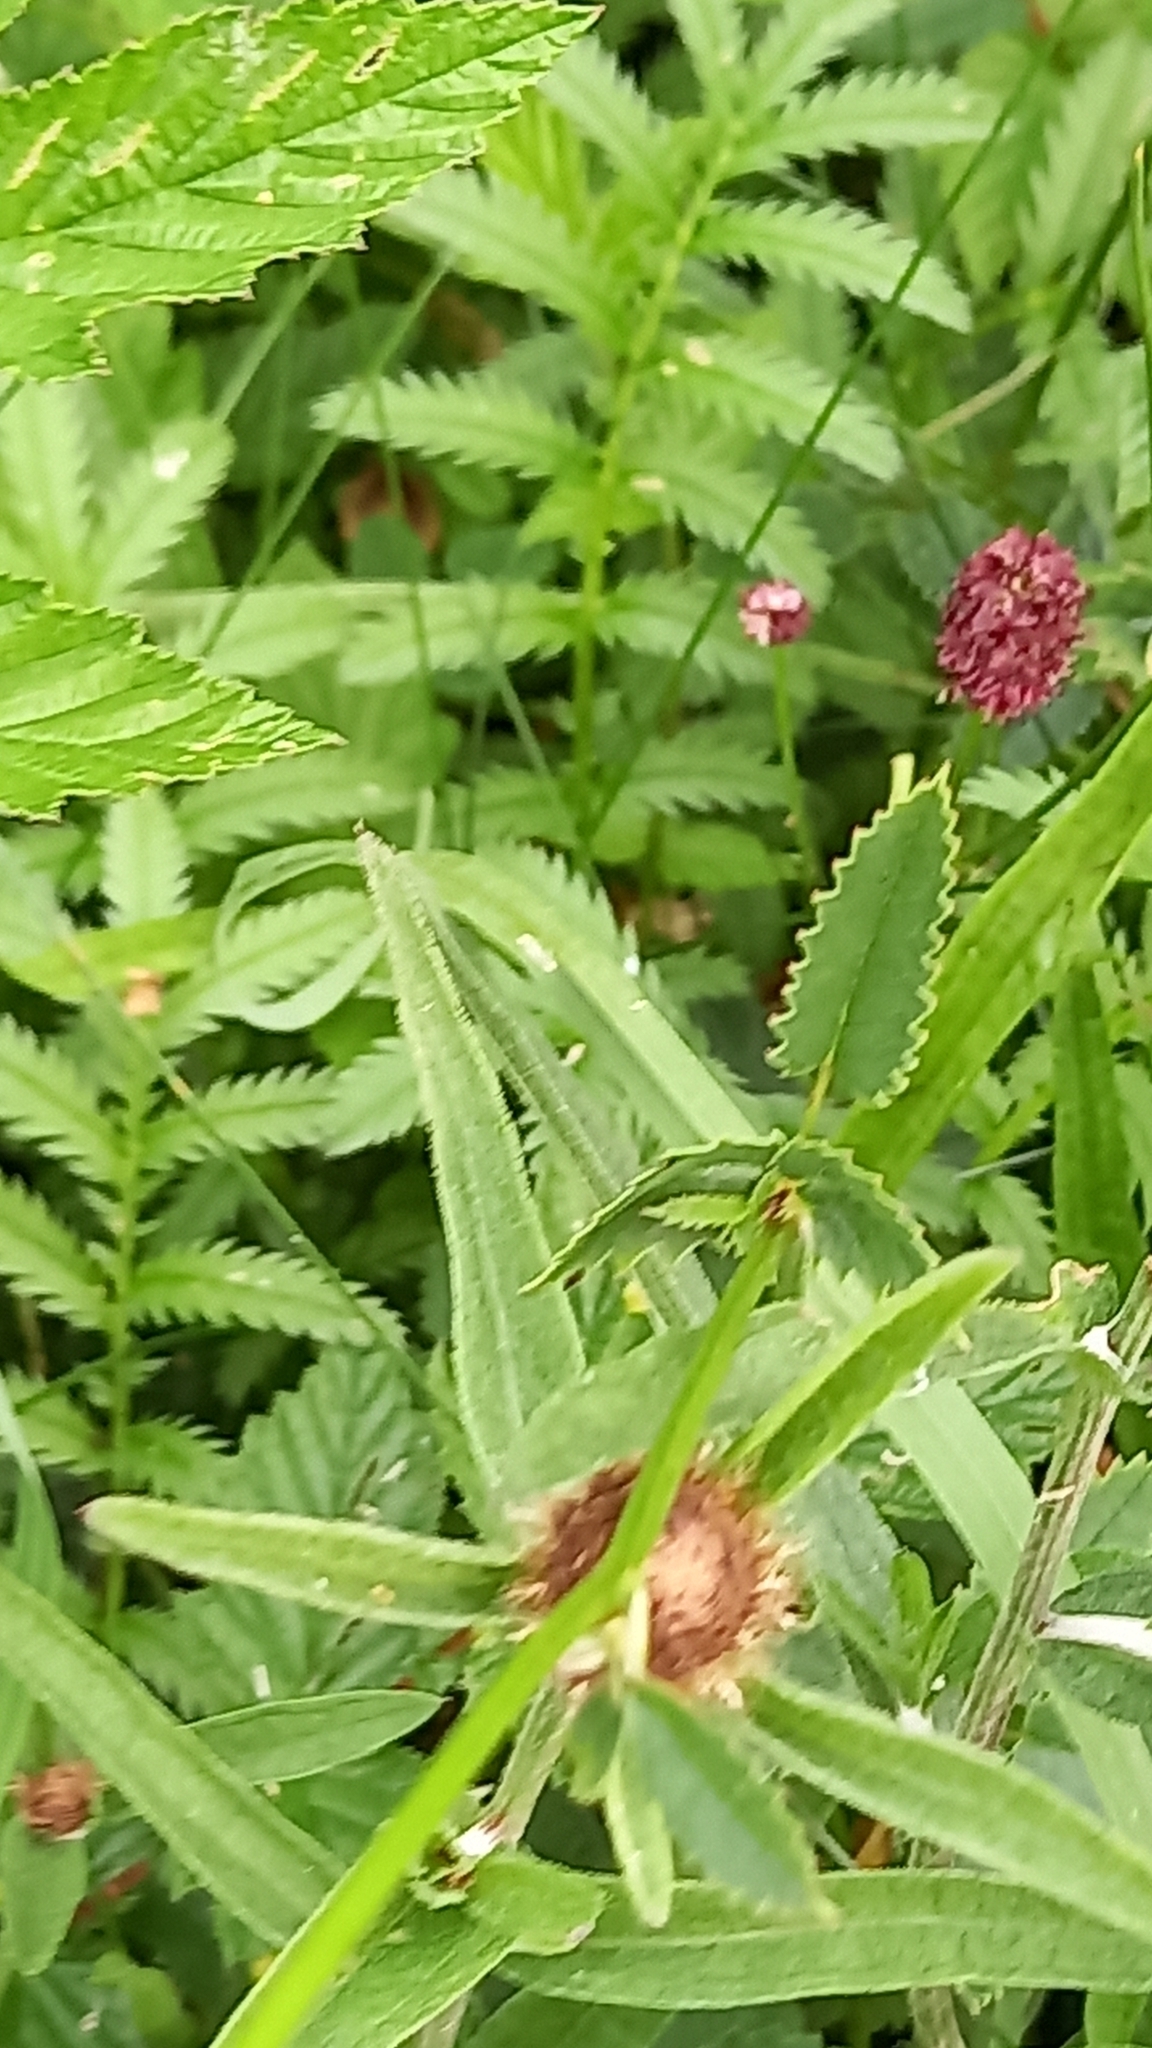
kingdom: Plantae
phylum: Tracheophyta
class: Magnoliopsida
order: Rosales
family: Rosaceae
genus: Sanguisorba
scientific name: Sanguisorba officinalis
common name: Great burnet
